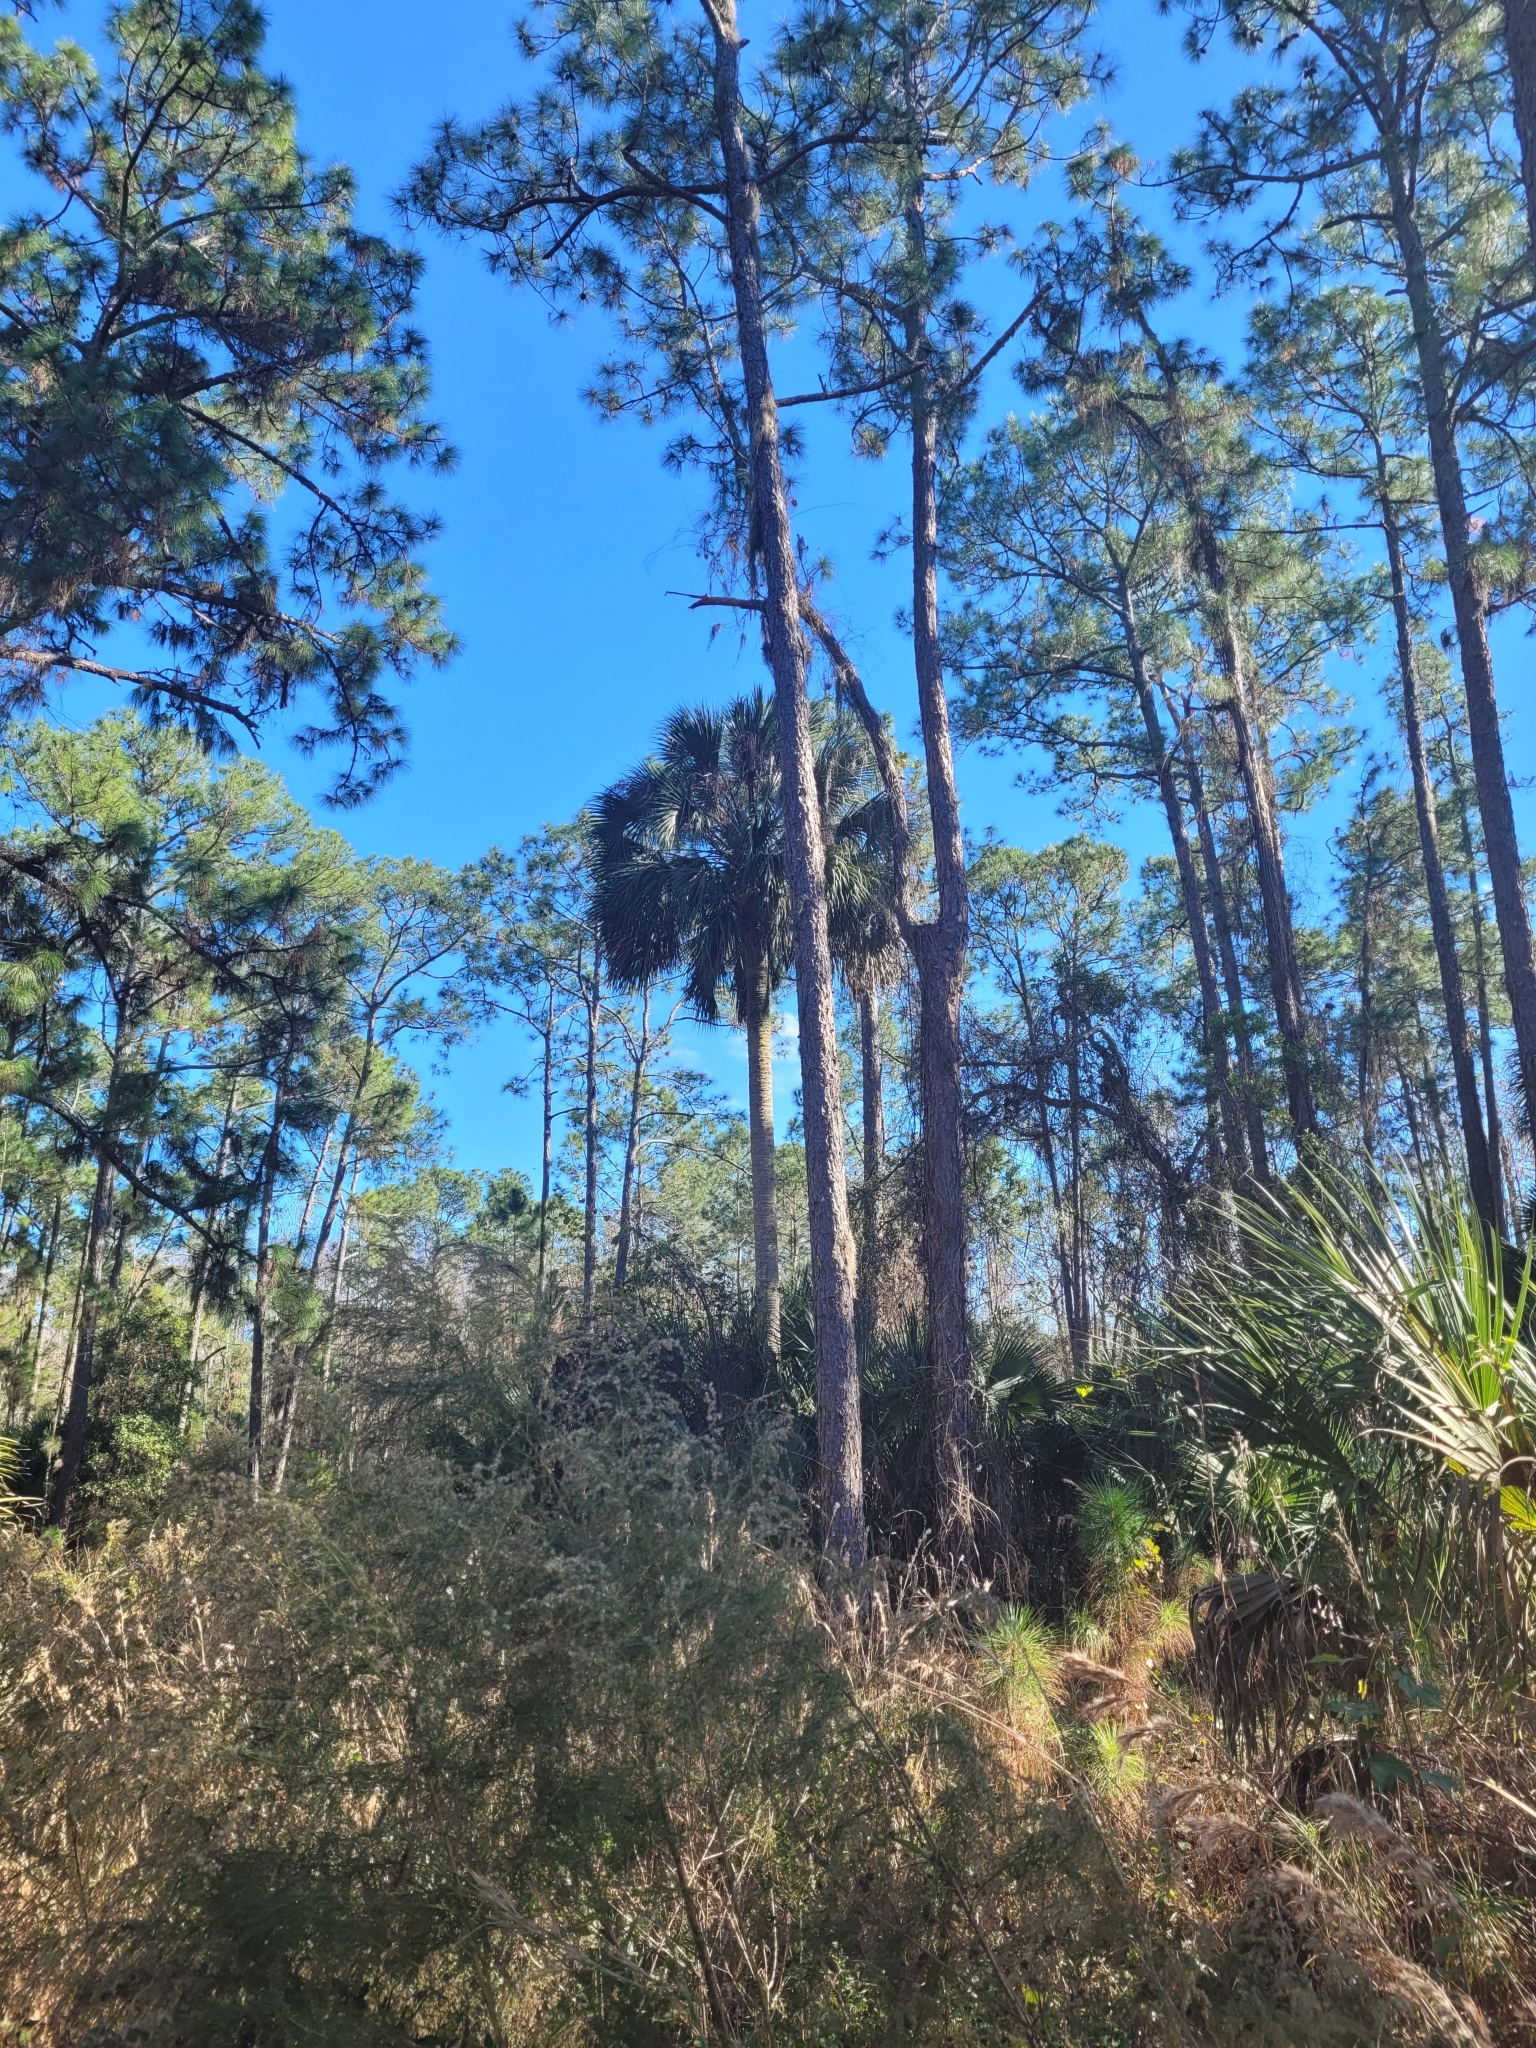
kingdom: Plantae
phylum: Tracheophyta
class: Liliopsida
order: Arecales
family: Arecaceae
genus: Sabal
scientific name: Sabal palmetto
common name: Blue palmetto
